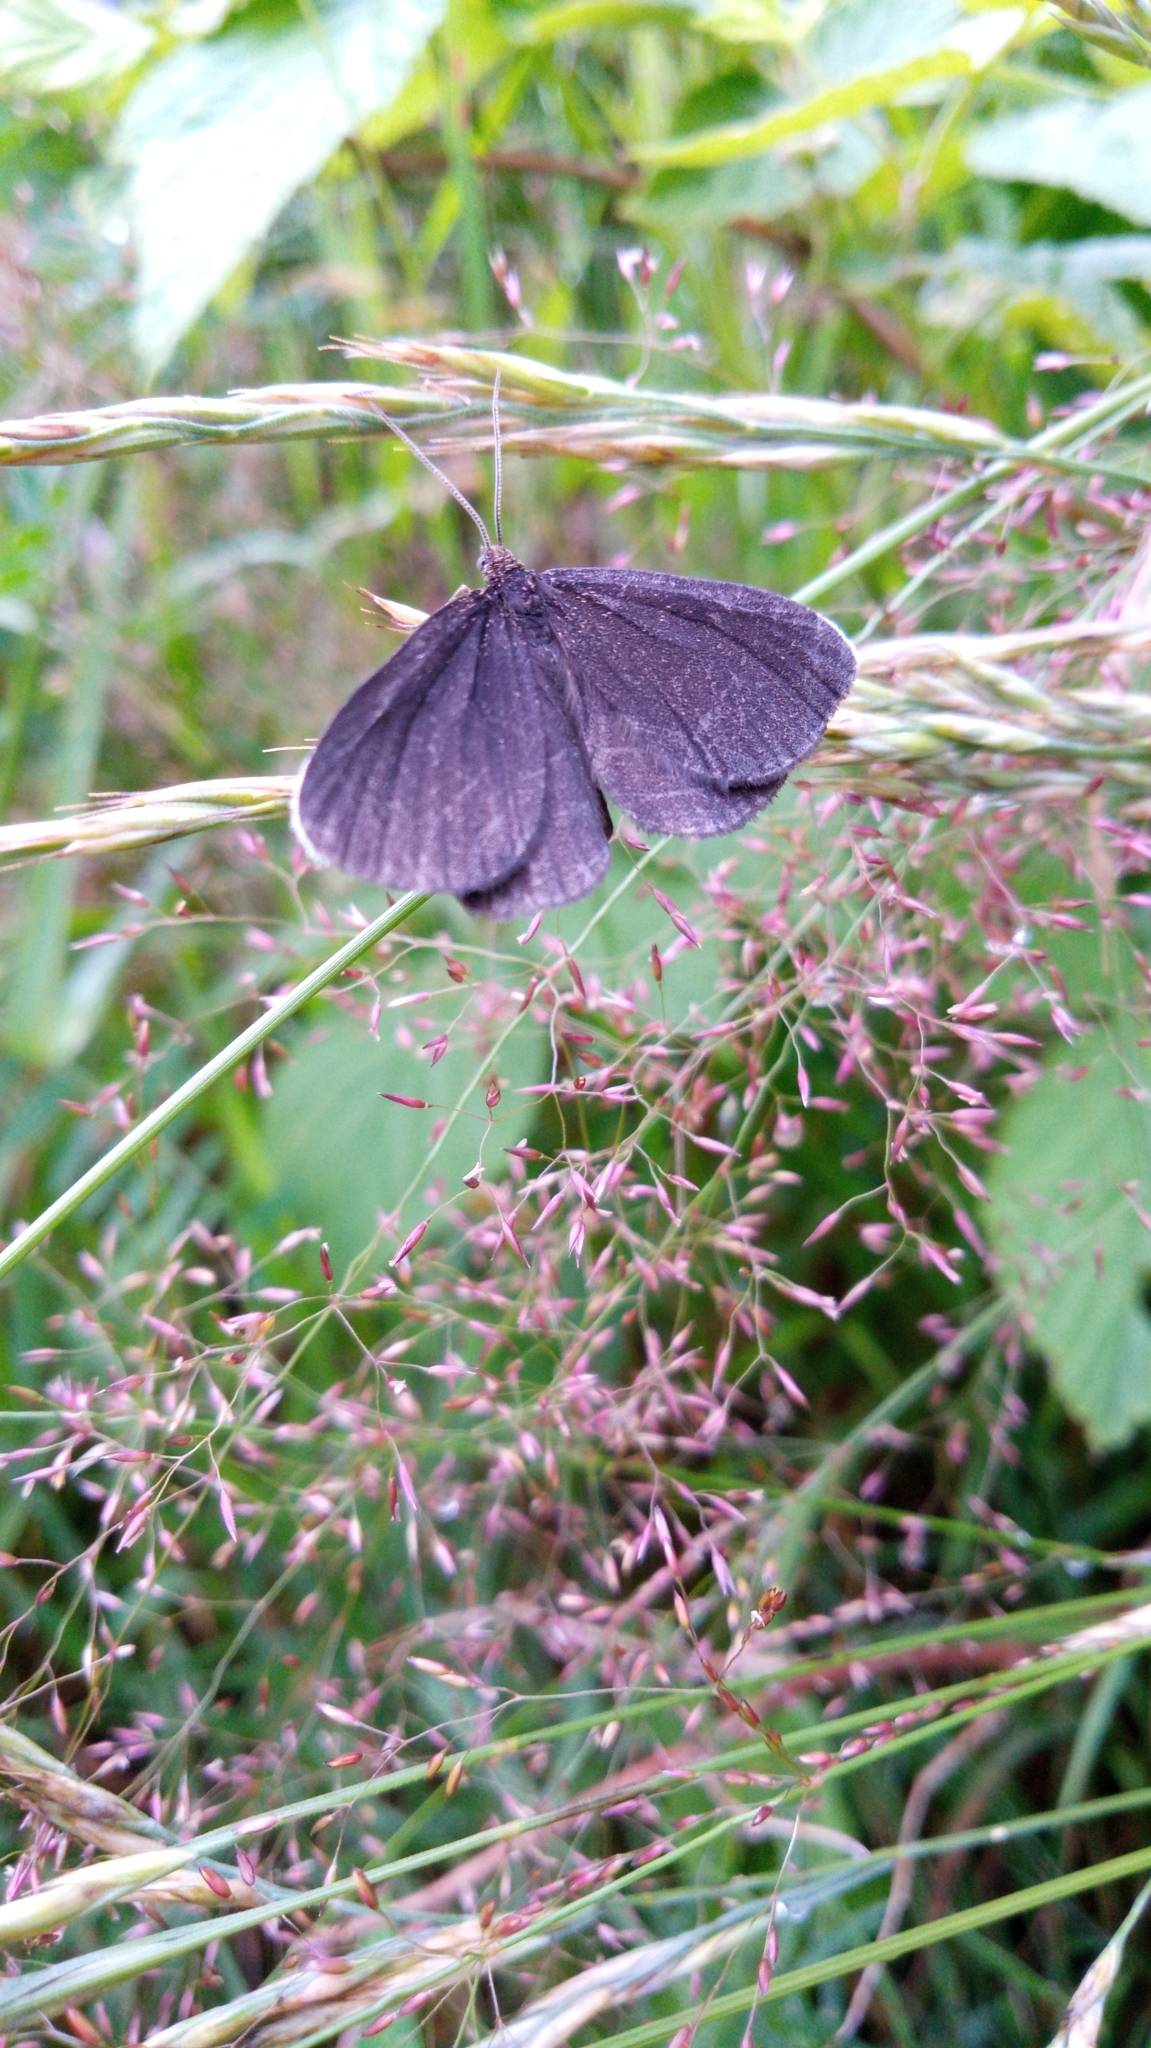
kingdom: Animalia
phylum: Arthropoda
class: Insecta
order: Lepidoptera
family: Geometridae
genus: Odezia
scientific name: Odezia atrata
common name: Chimney sweeper
